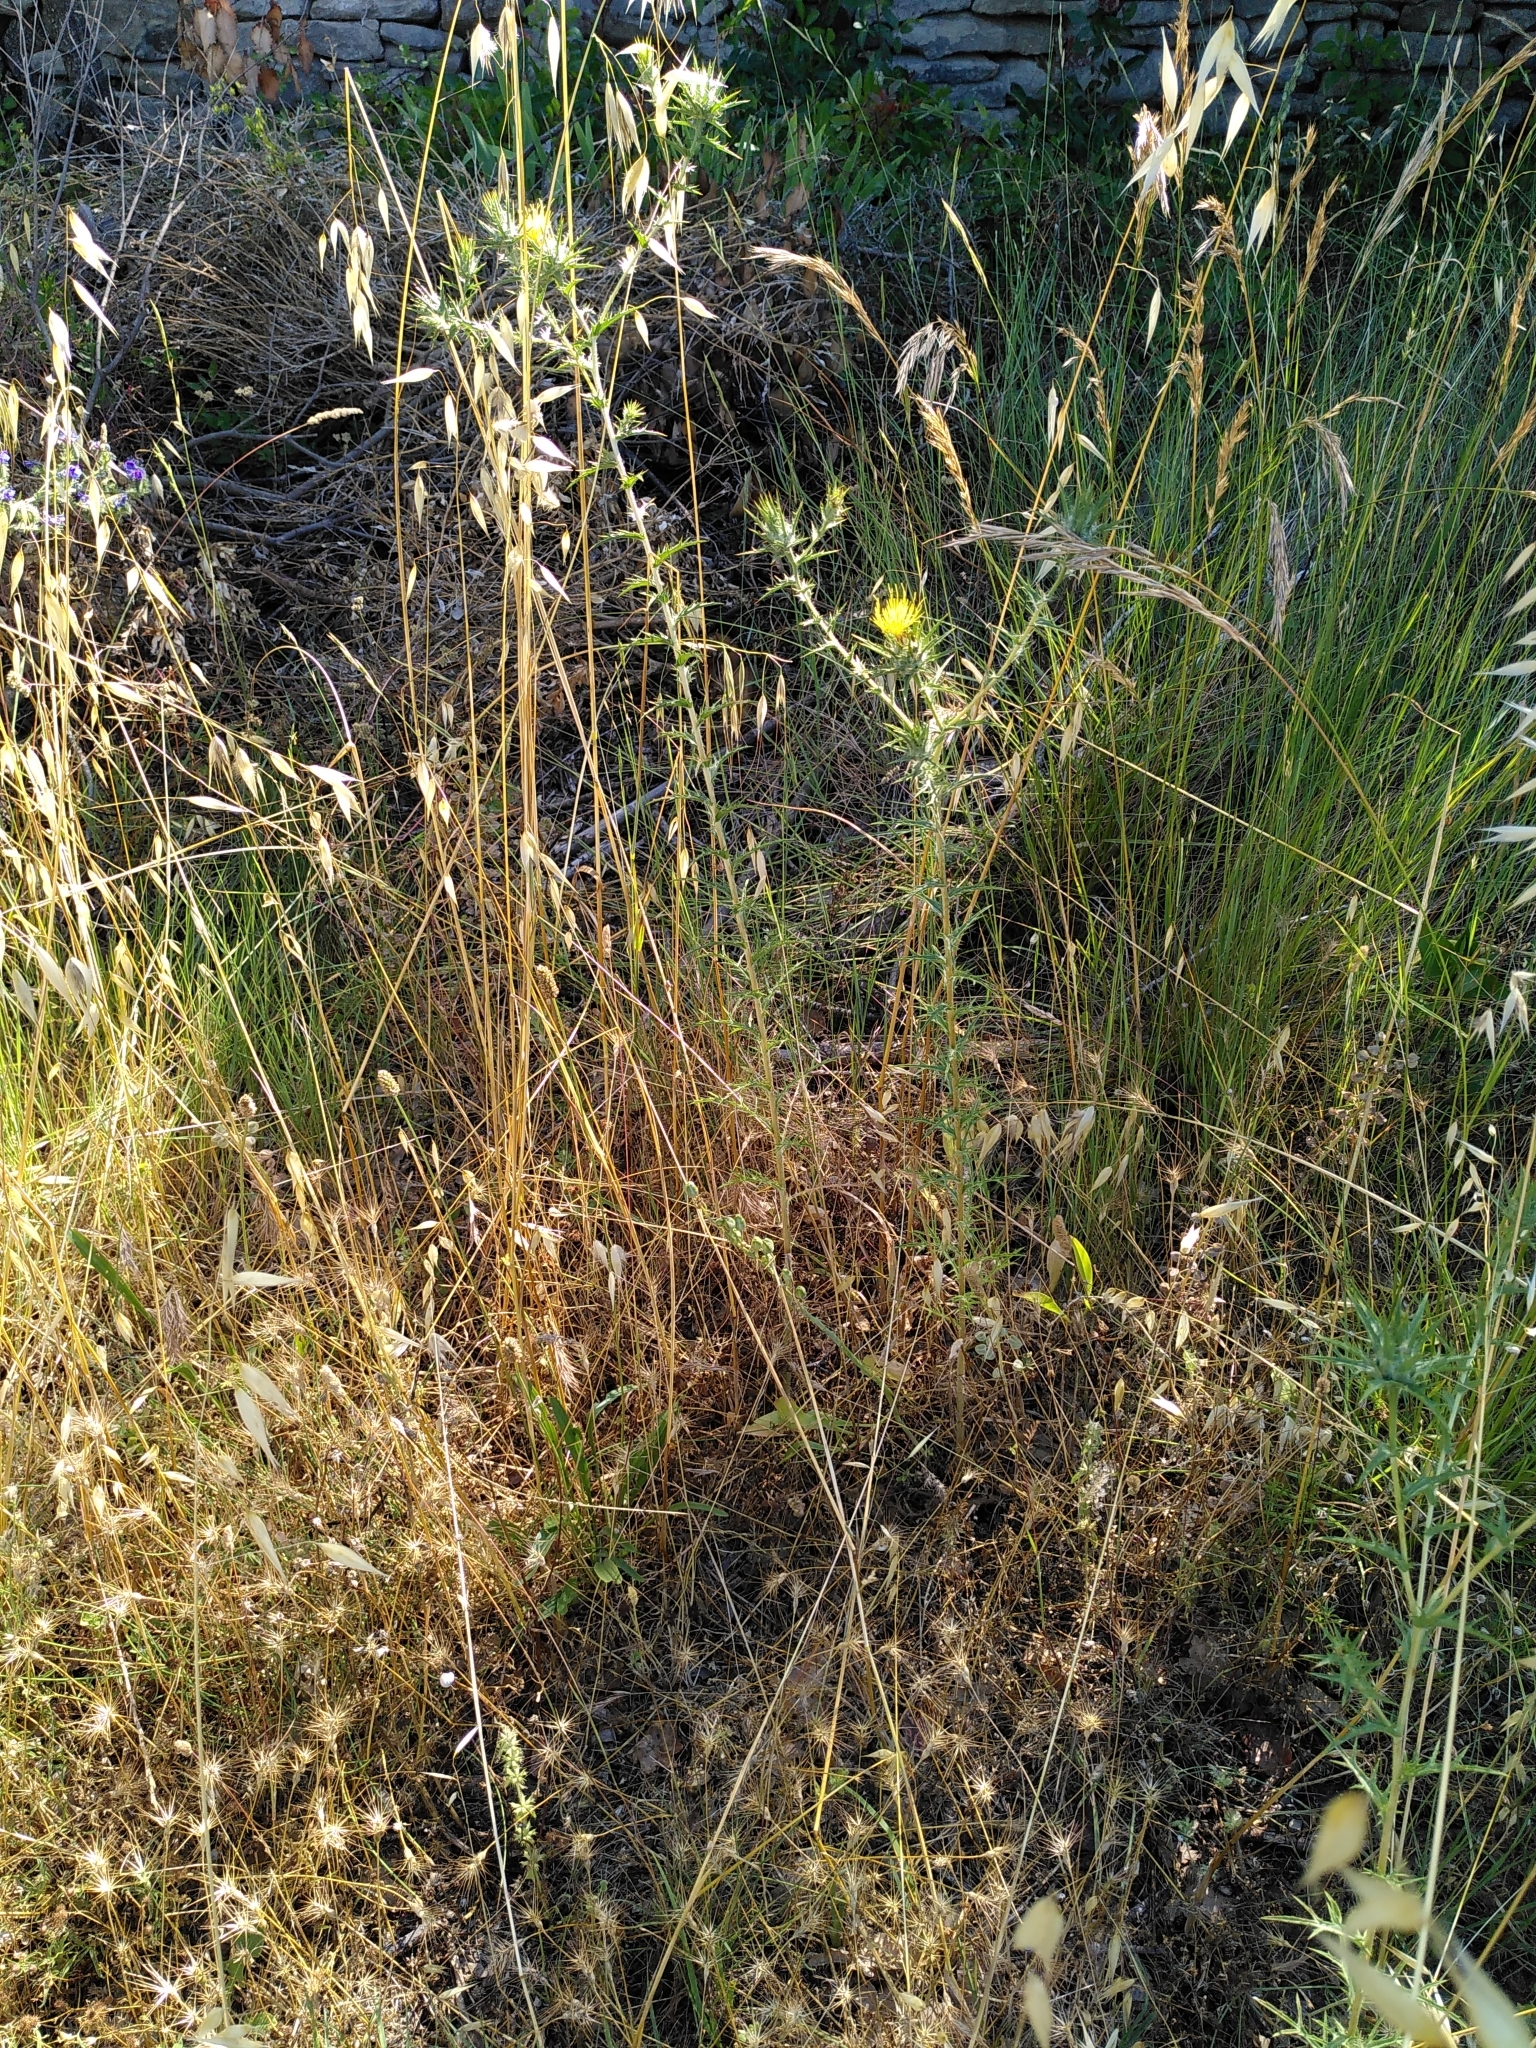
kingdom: Plantae
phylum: Tracheophyta
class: Magnoliopsida
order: Asterales
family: Asteraceae
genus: Carthamus
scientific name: Carthamus lanatus
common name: Downy safflower
